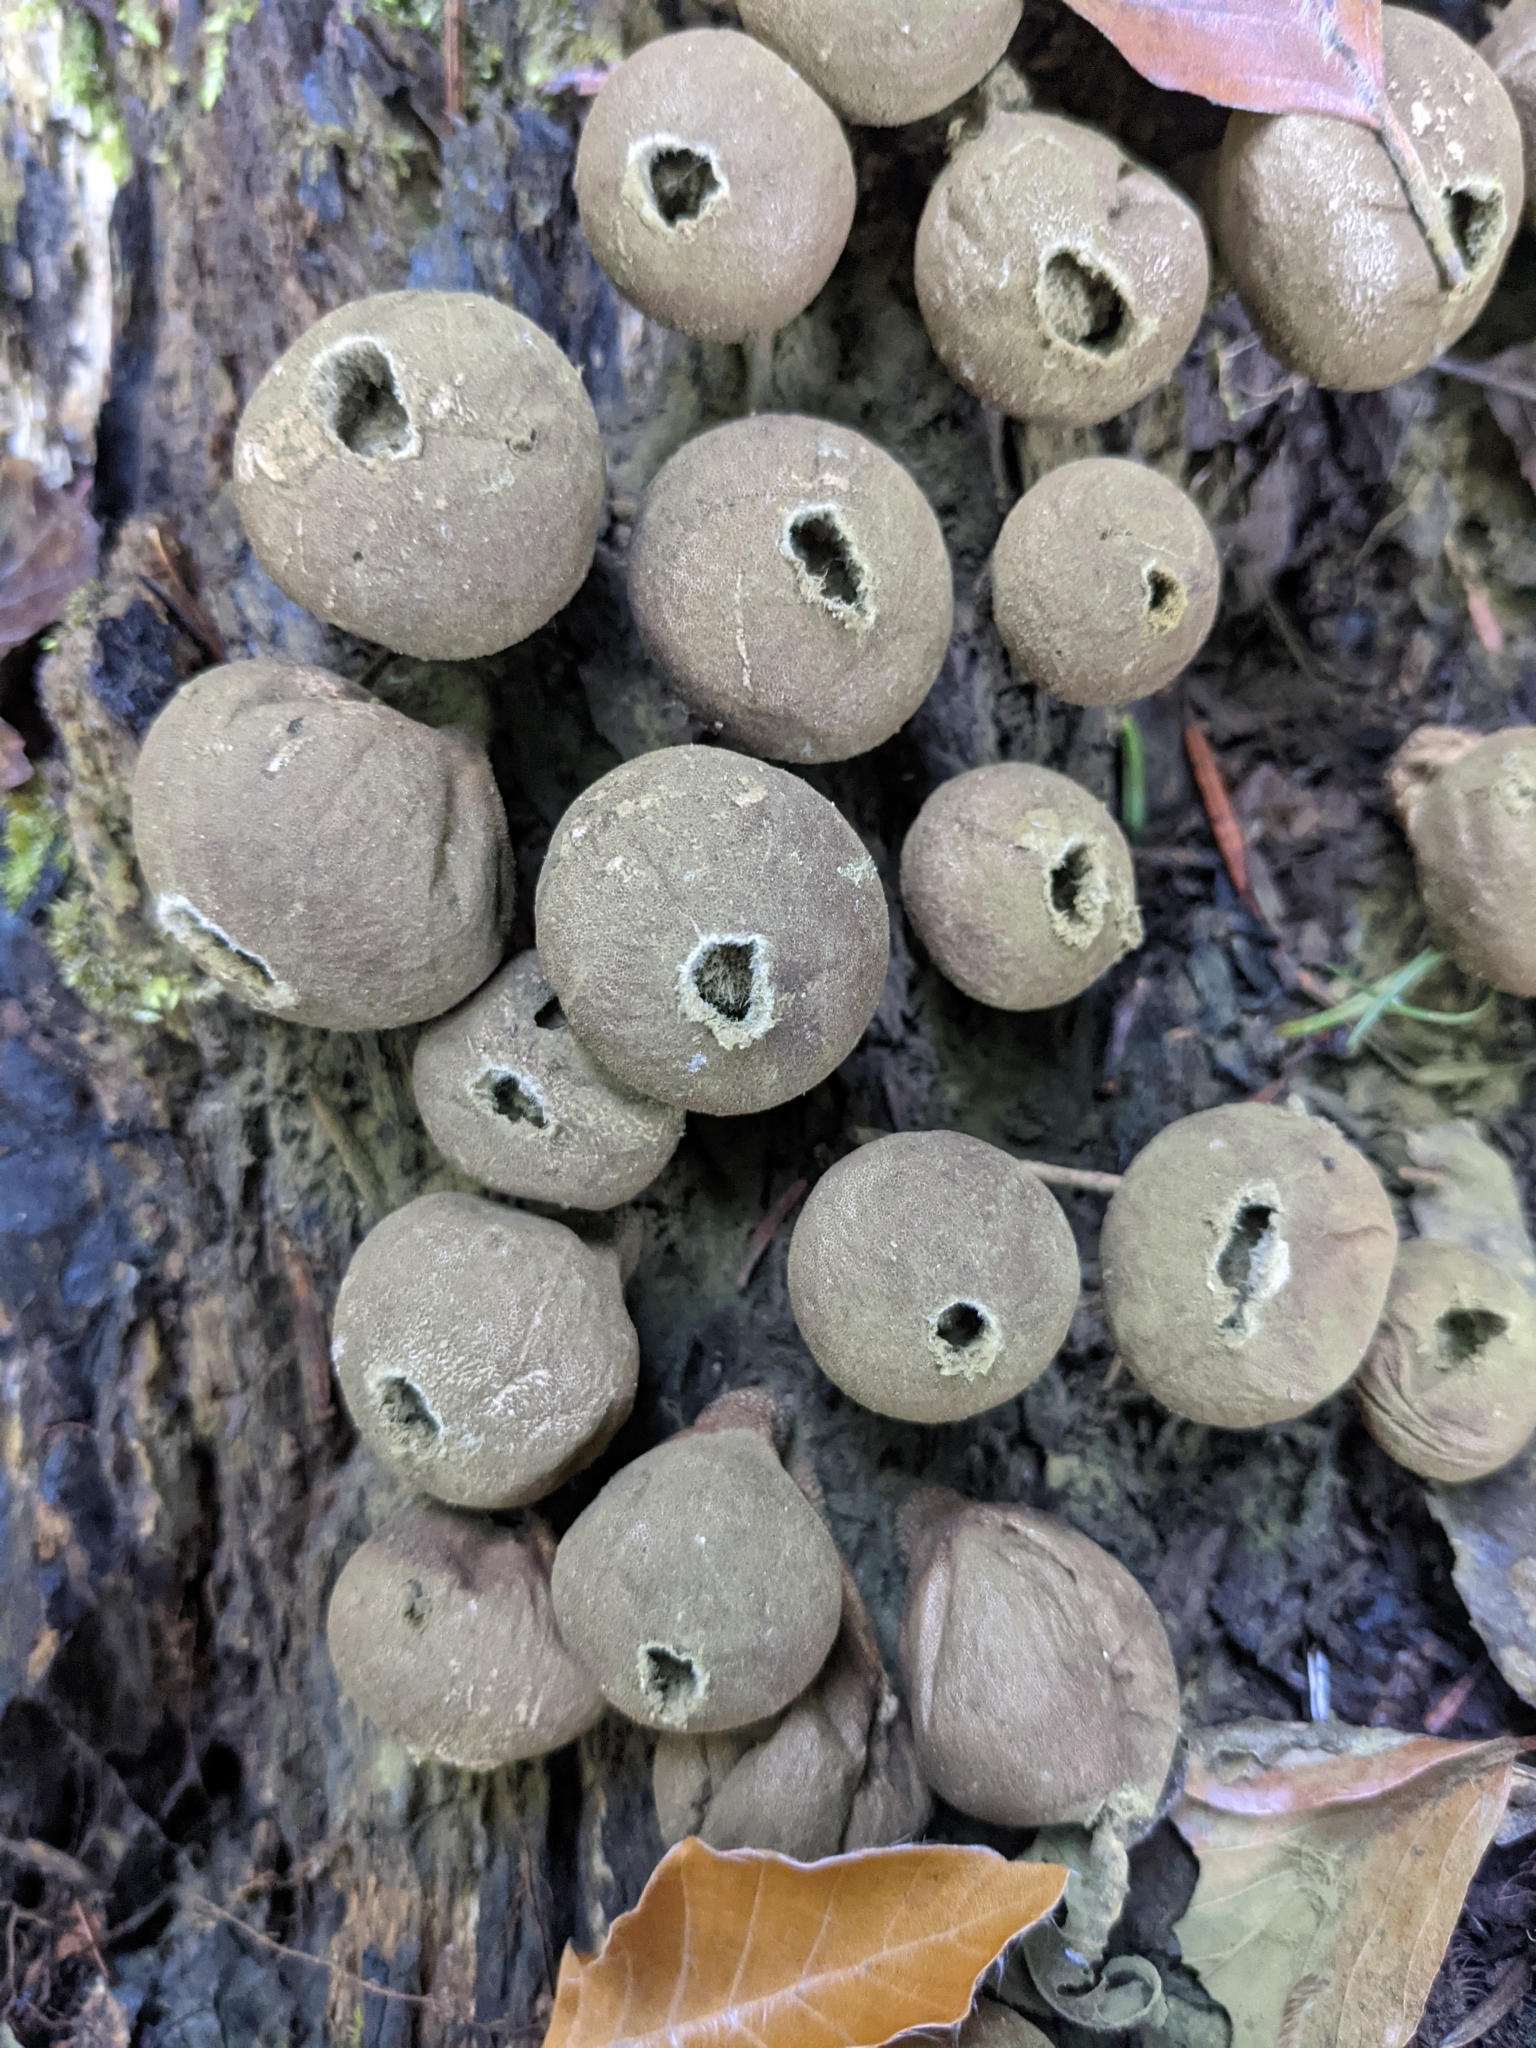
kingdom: Fungi
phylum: Basidiomycota
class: Agaricomycetes
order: Agaricales
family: Lycoperdaceae
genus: Apioperdon
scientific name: Apioperdon pyriforme
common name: Pear-shaped puffball
